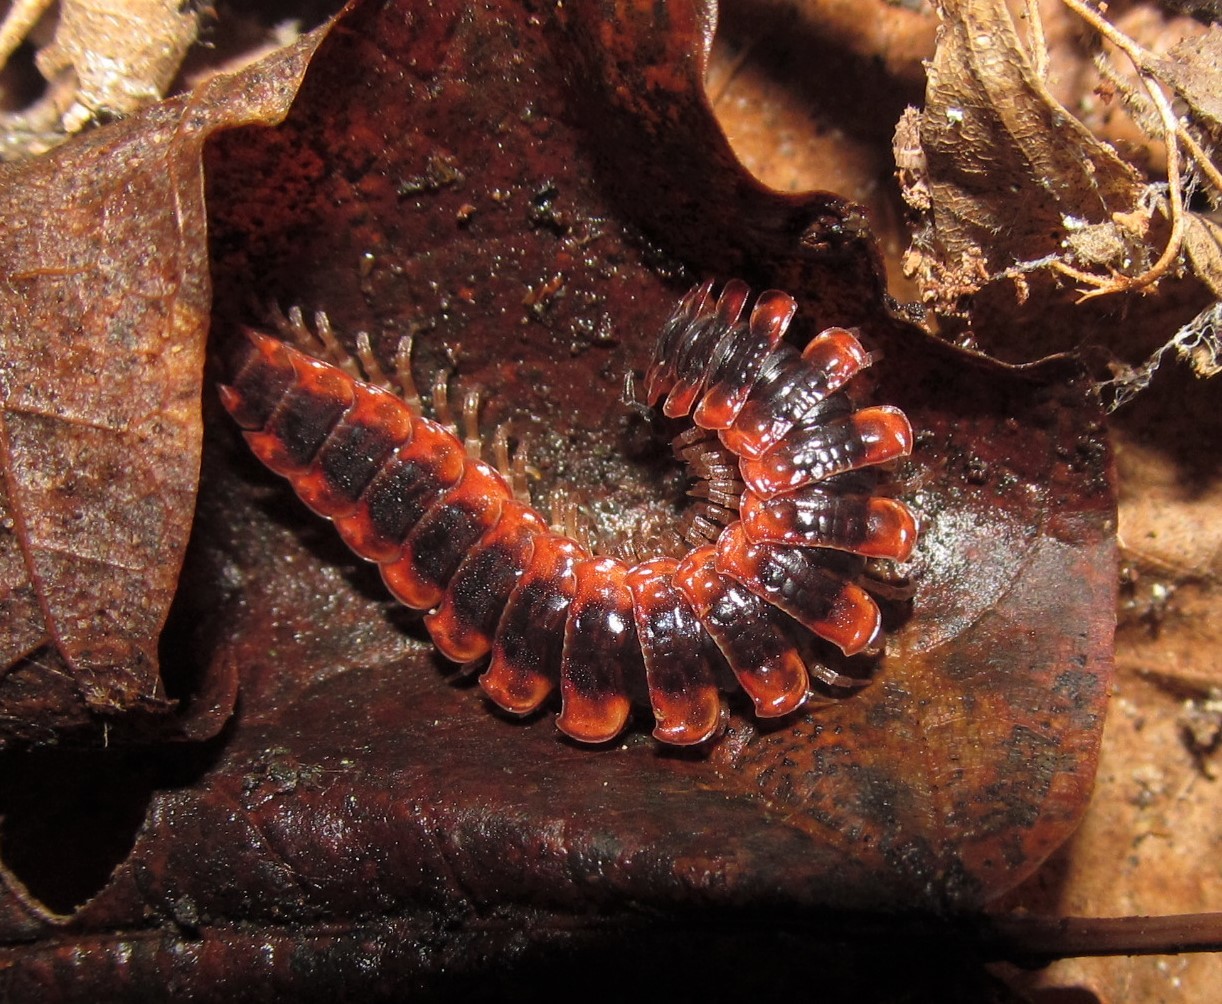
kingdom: Animalia
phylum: Arthropoda
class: Diplopoda
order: Polydesmida
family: Polydesmidae
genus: Pseudopolydesmus
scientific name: Pseudopolydesmus canadensis
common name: Canadian flat-back millipede
